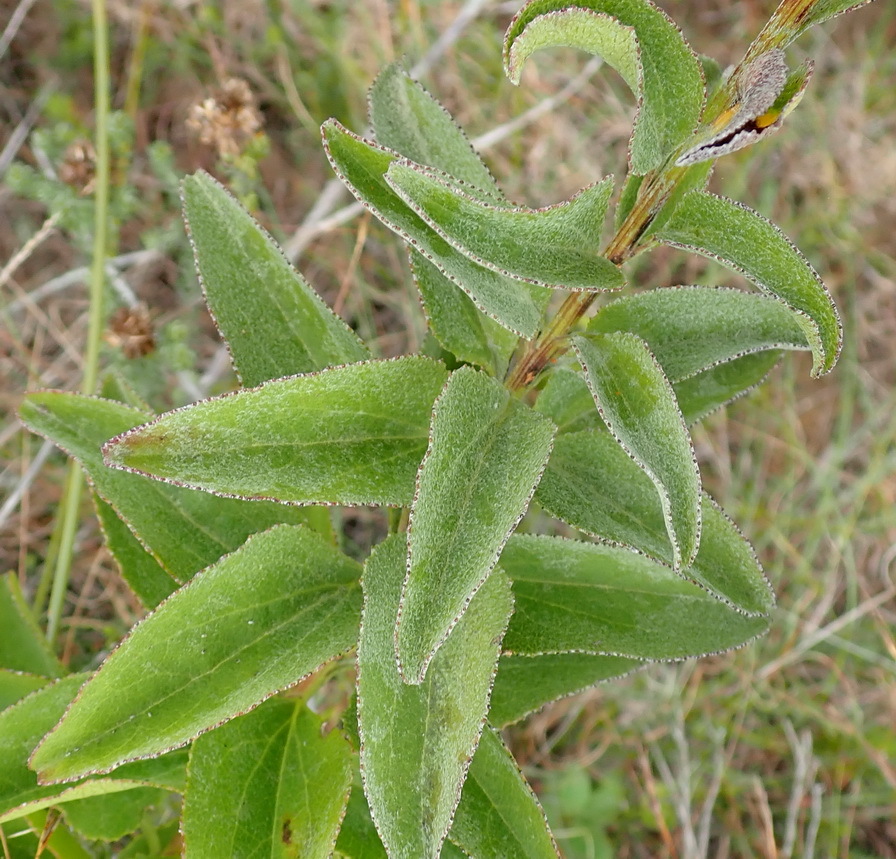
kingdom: Plantae
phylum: Tracheophyta
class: Magnoliopsida
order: Asterales
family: Asteraceae
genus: Senecio
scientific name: Senecio crenatus
